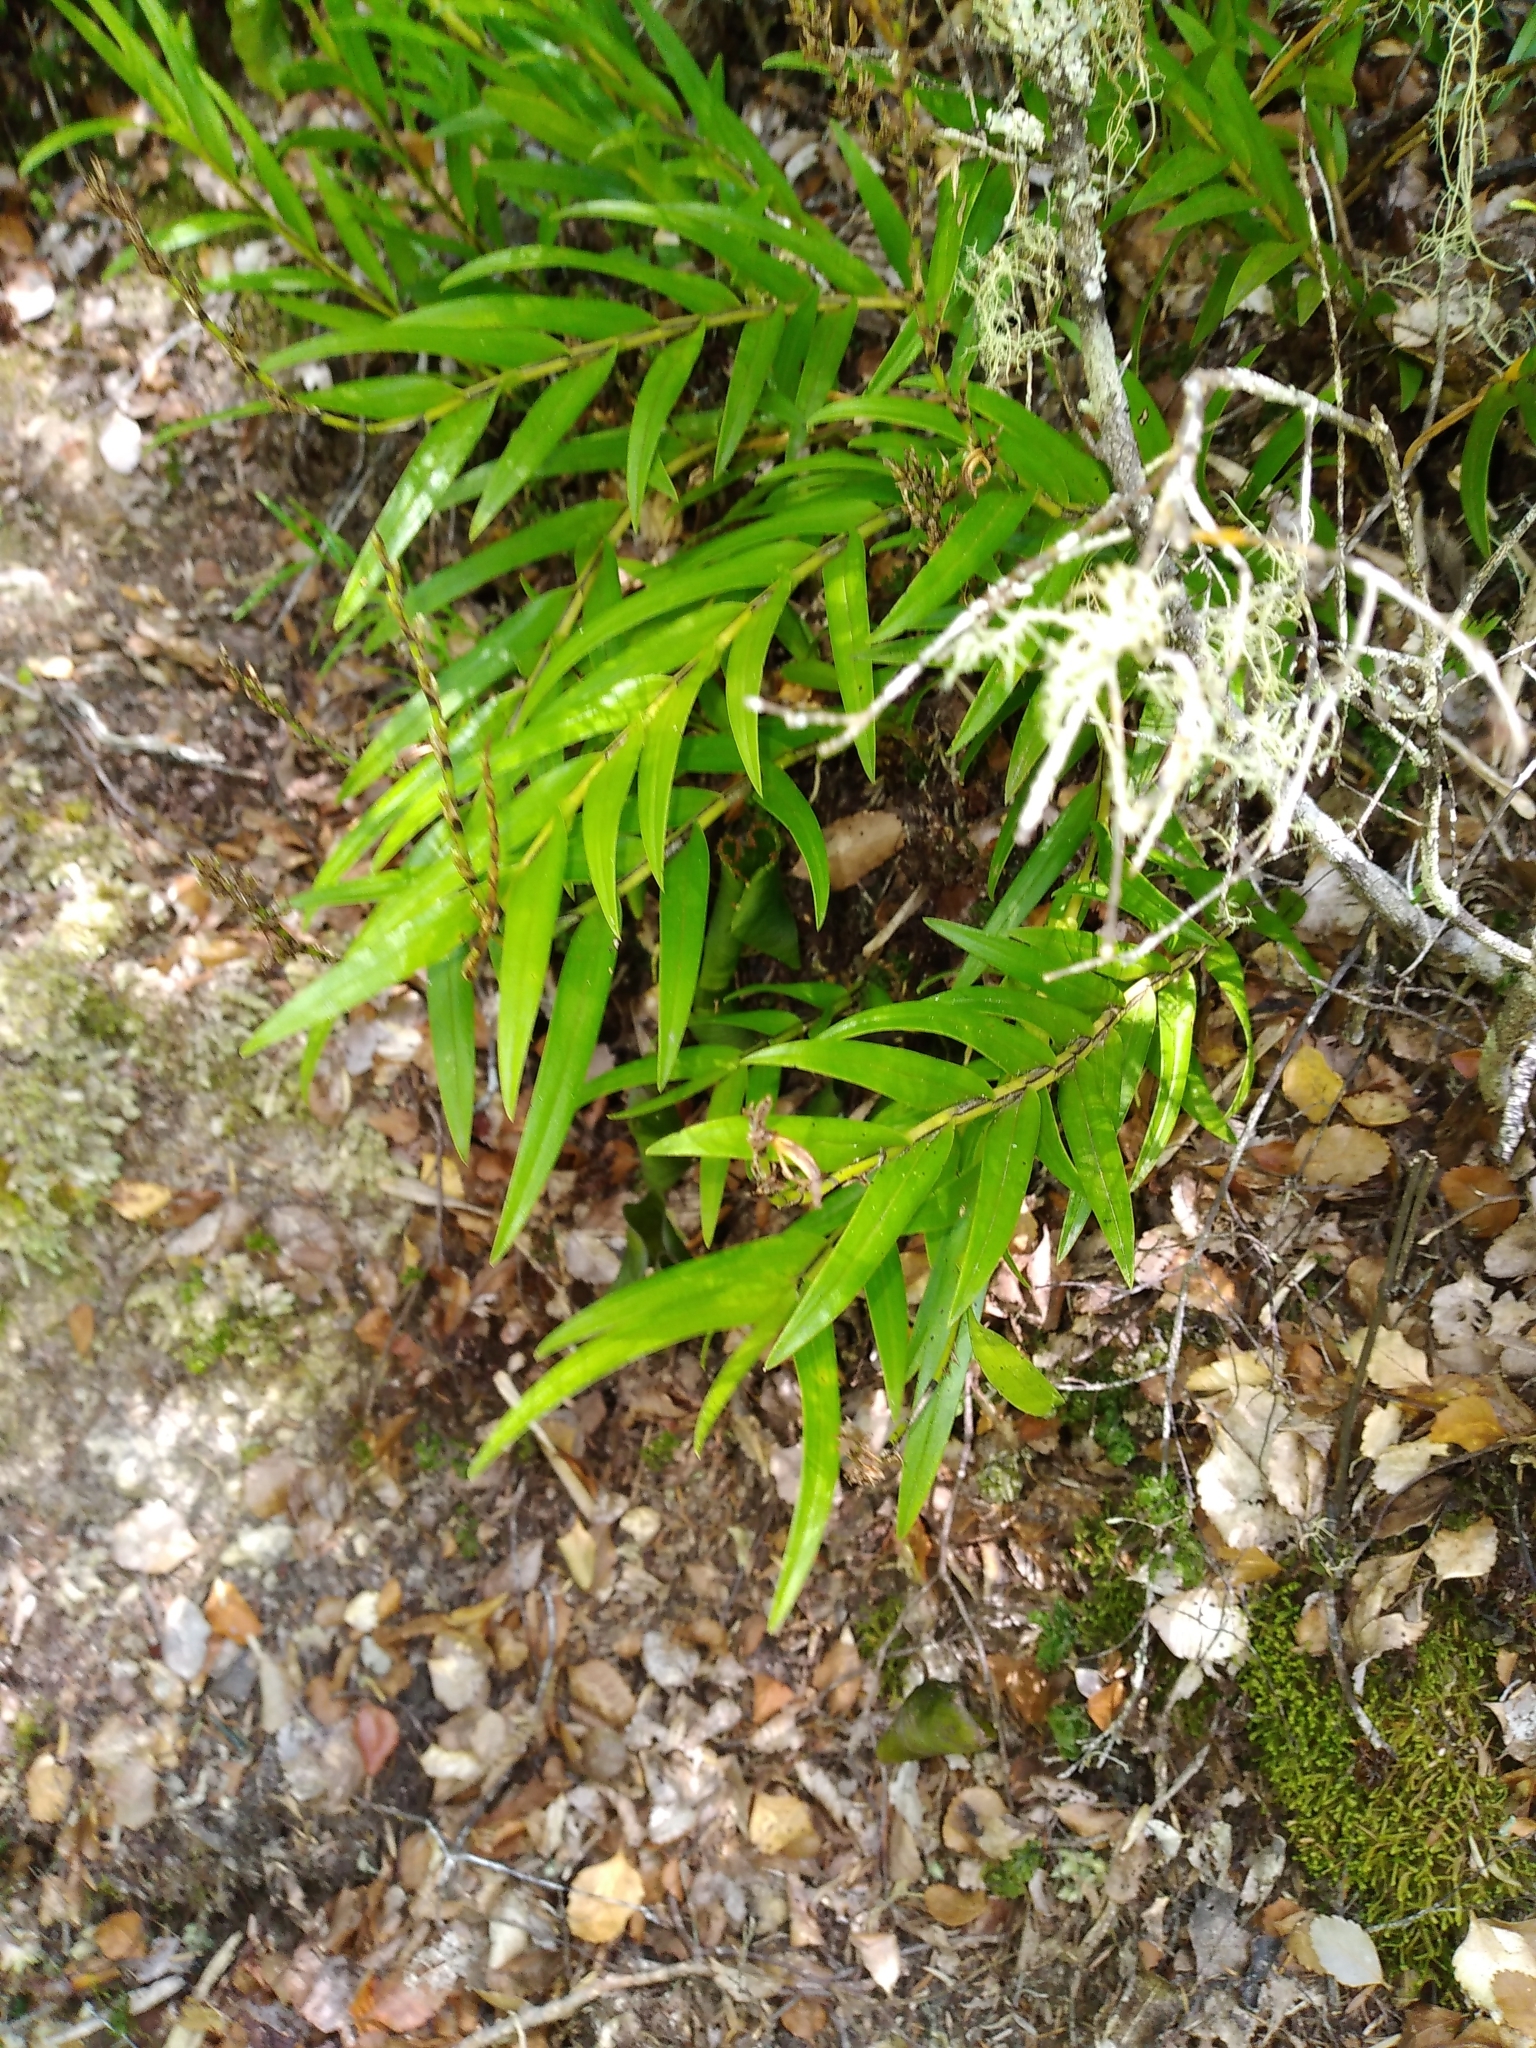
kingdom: Plantae
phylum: Tracheophyta
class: Liliopsida
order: Asparagales
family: Orchidaceae
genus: Earina
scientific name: Earina autumnalis
